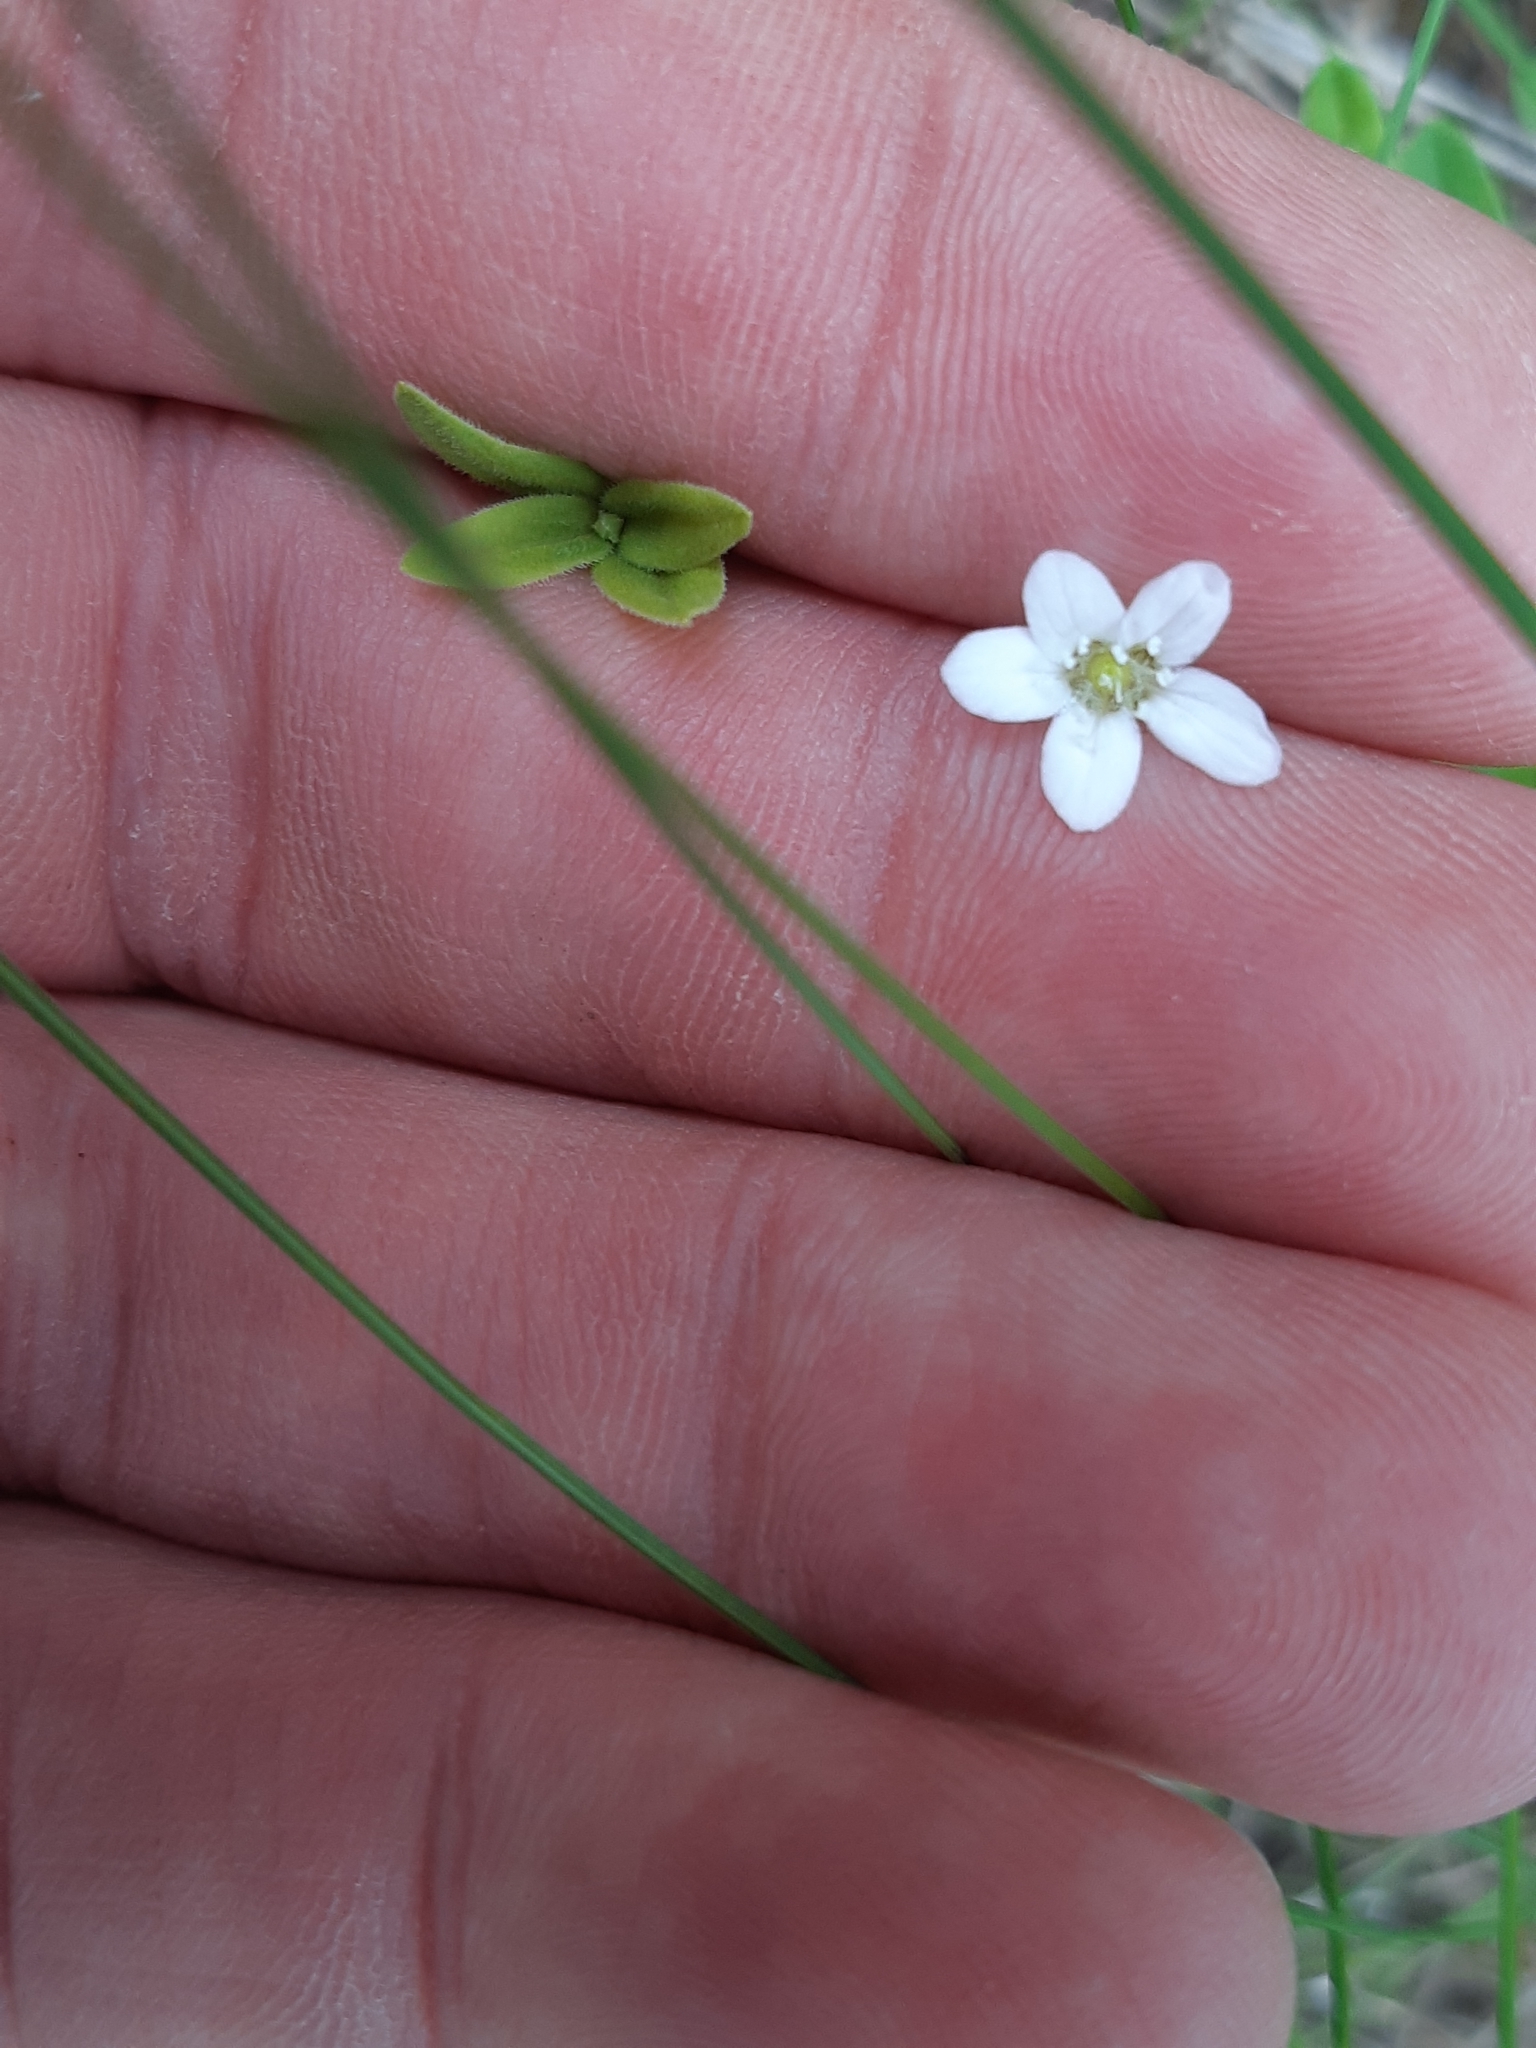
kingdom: Plantae
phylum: Tracheophyta
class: Magnoliopsida
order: Caryophyllales
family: Caryophyllaceae
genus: Moehringia
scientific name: Moehringia lateriflora
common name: Blunt-leaved sandwort
